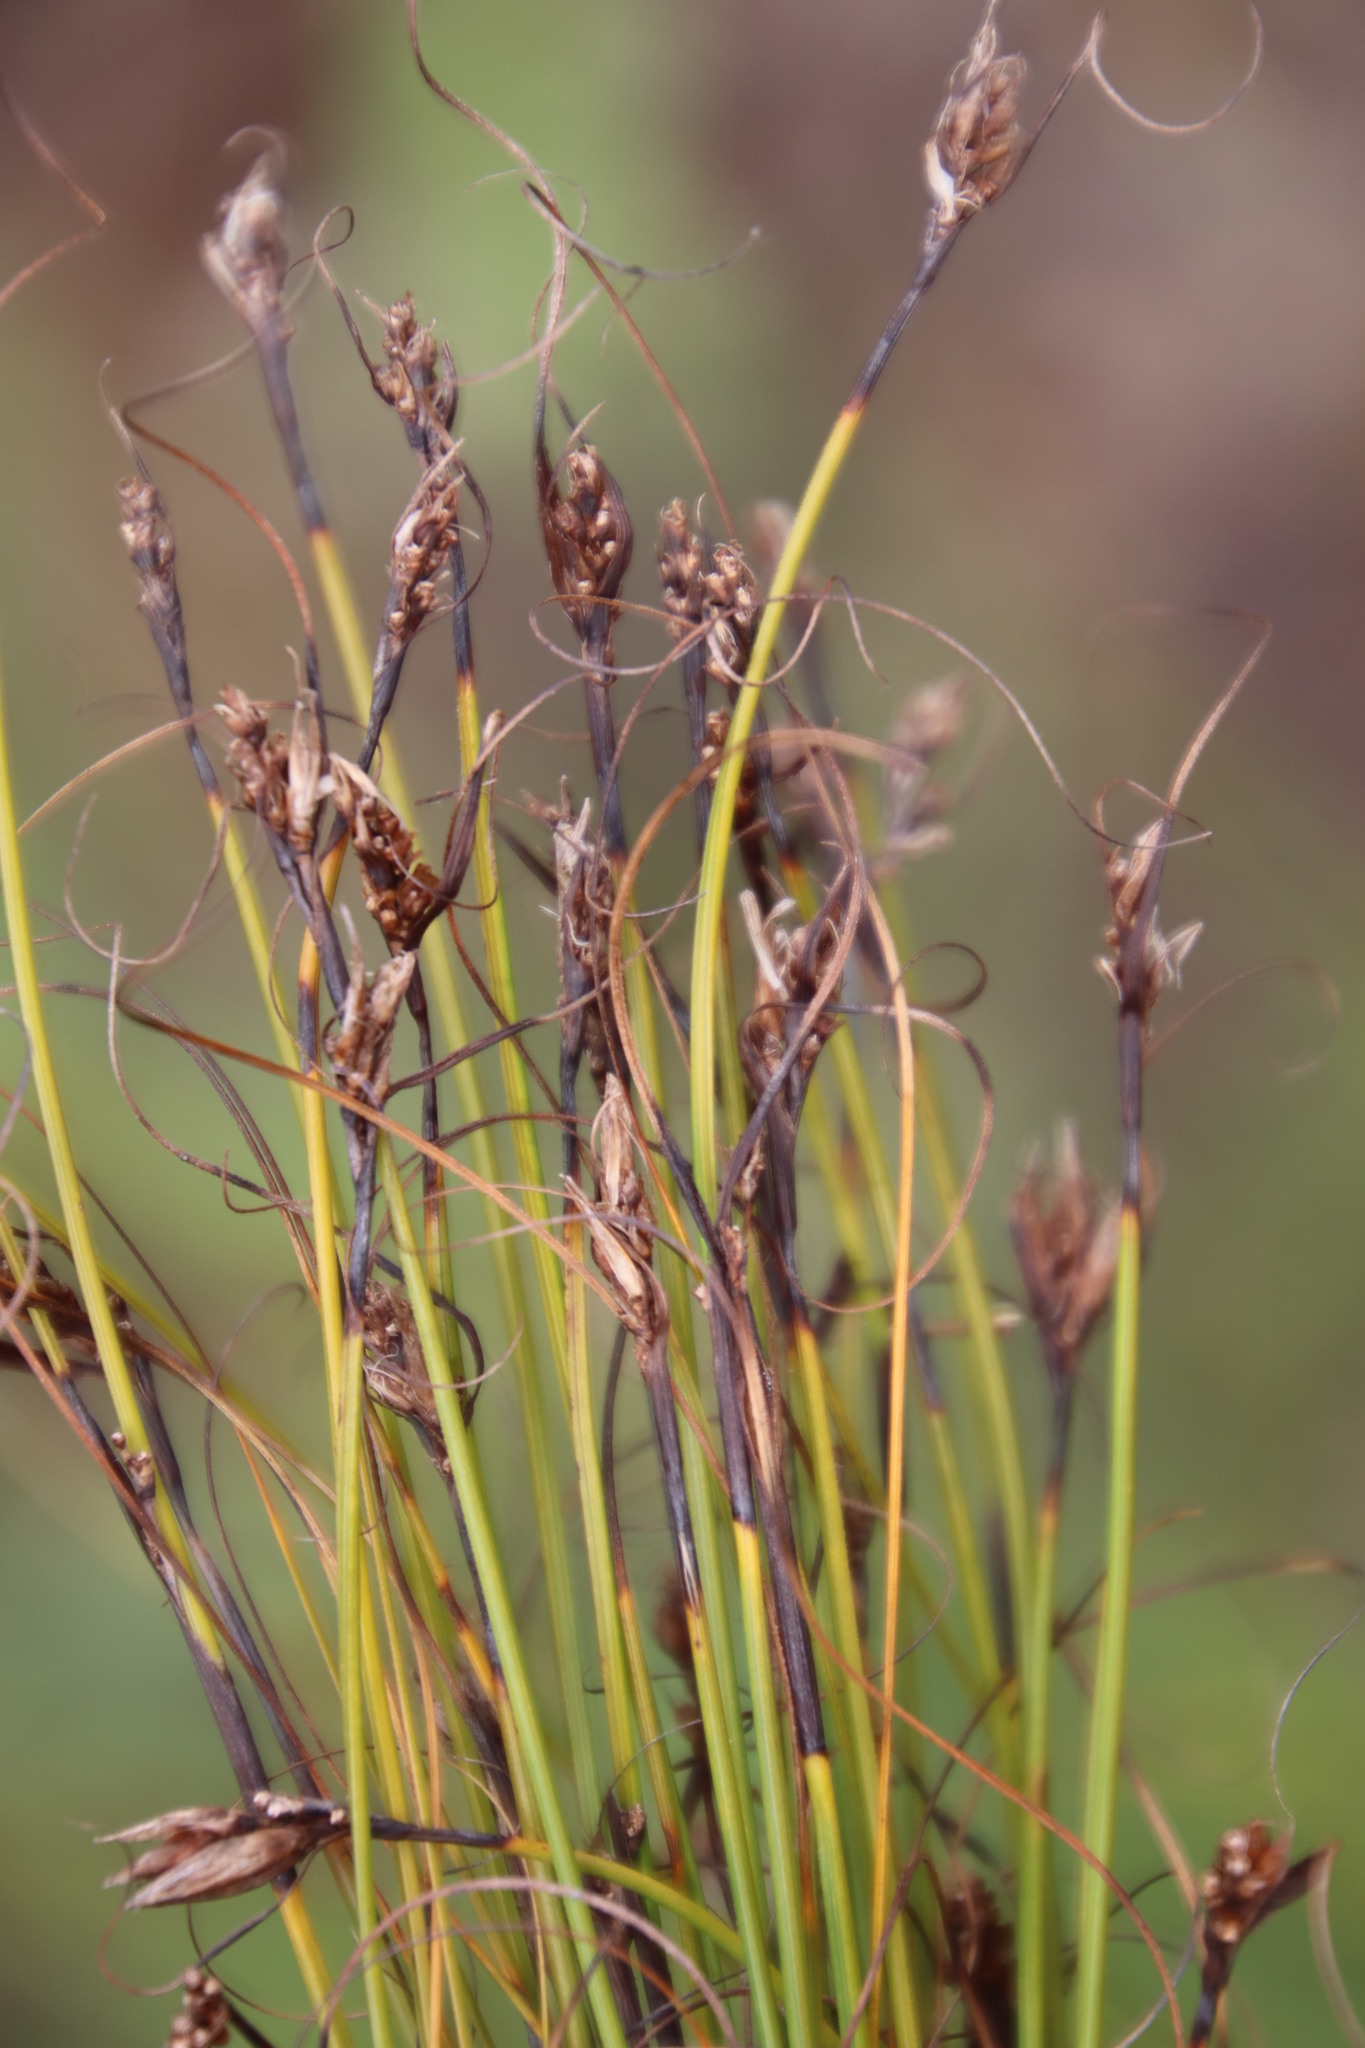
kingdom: Plantae
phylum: Tracheophyta
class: Liliopsida
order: Poales
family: Cyperaceae
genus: Tetraria
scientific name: Tetraria crinifolia
